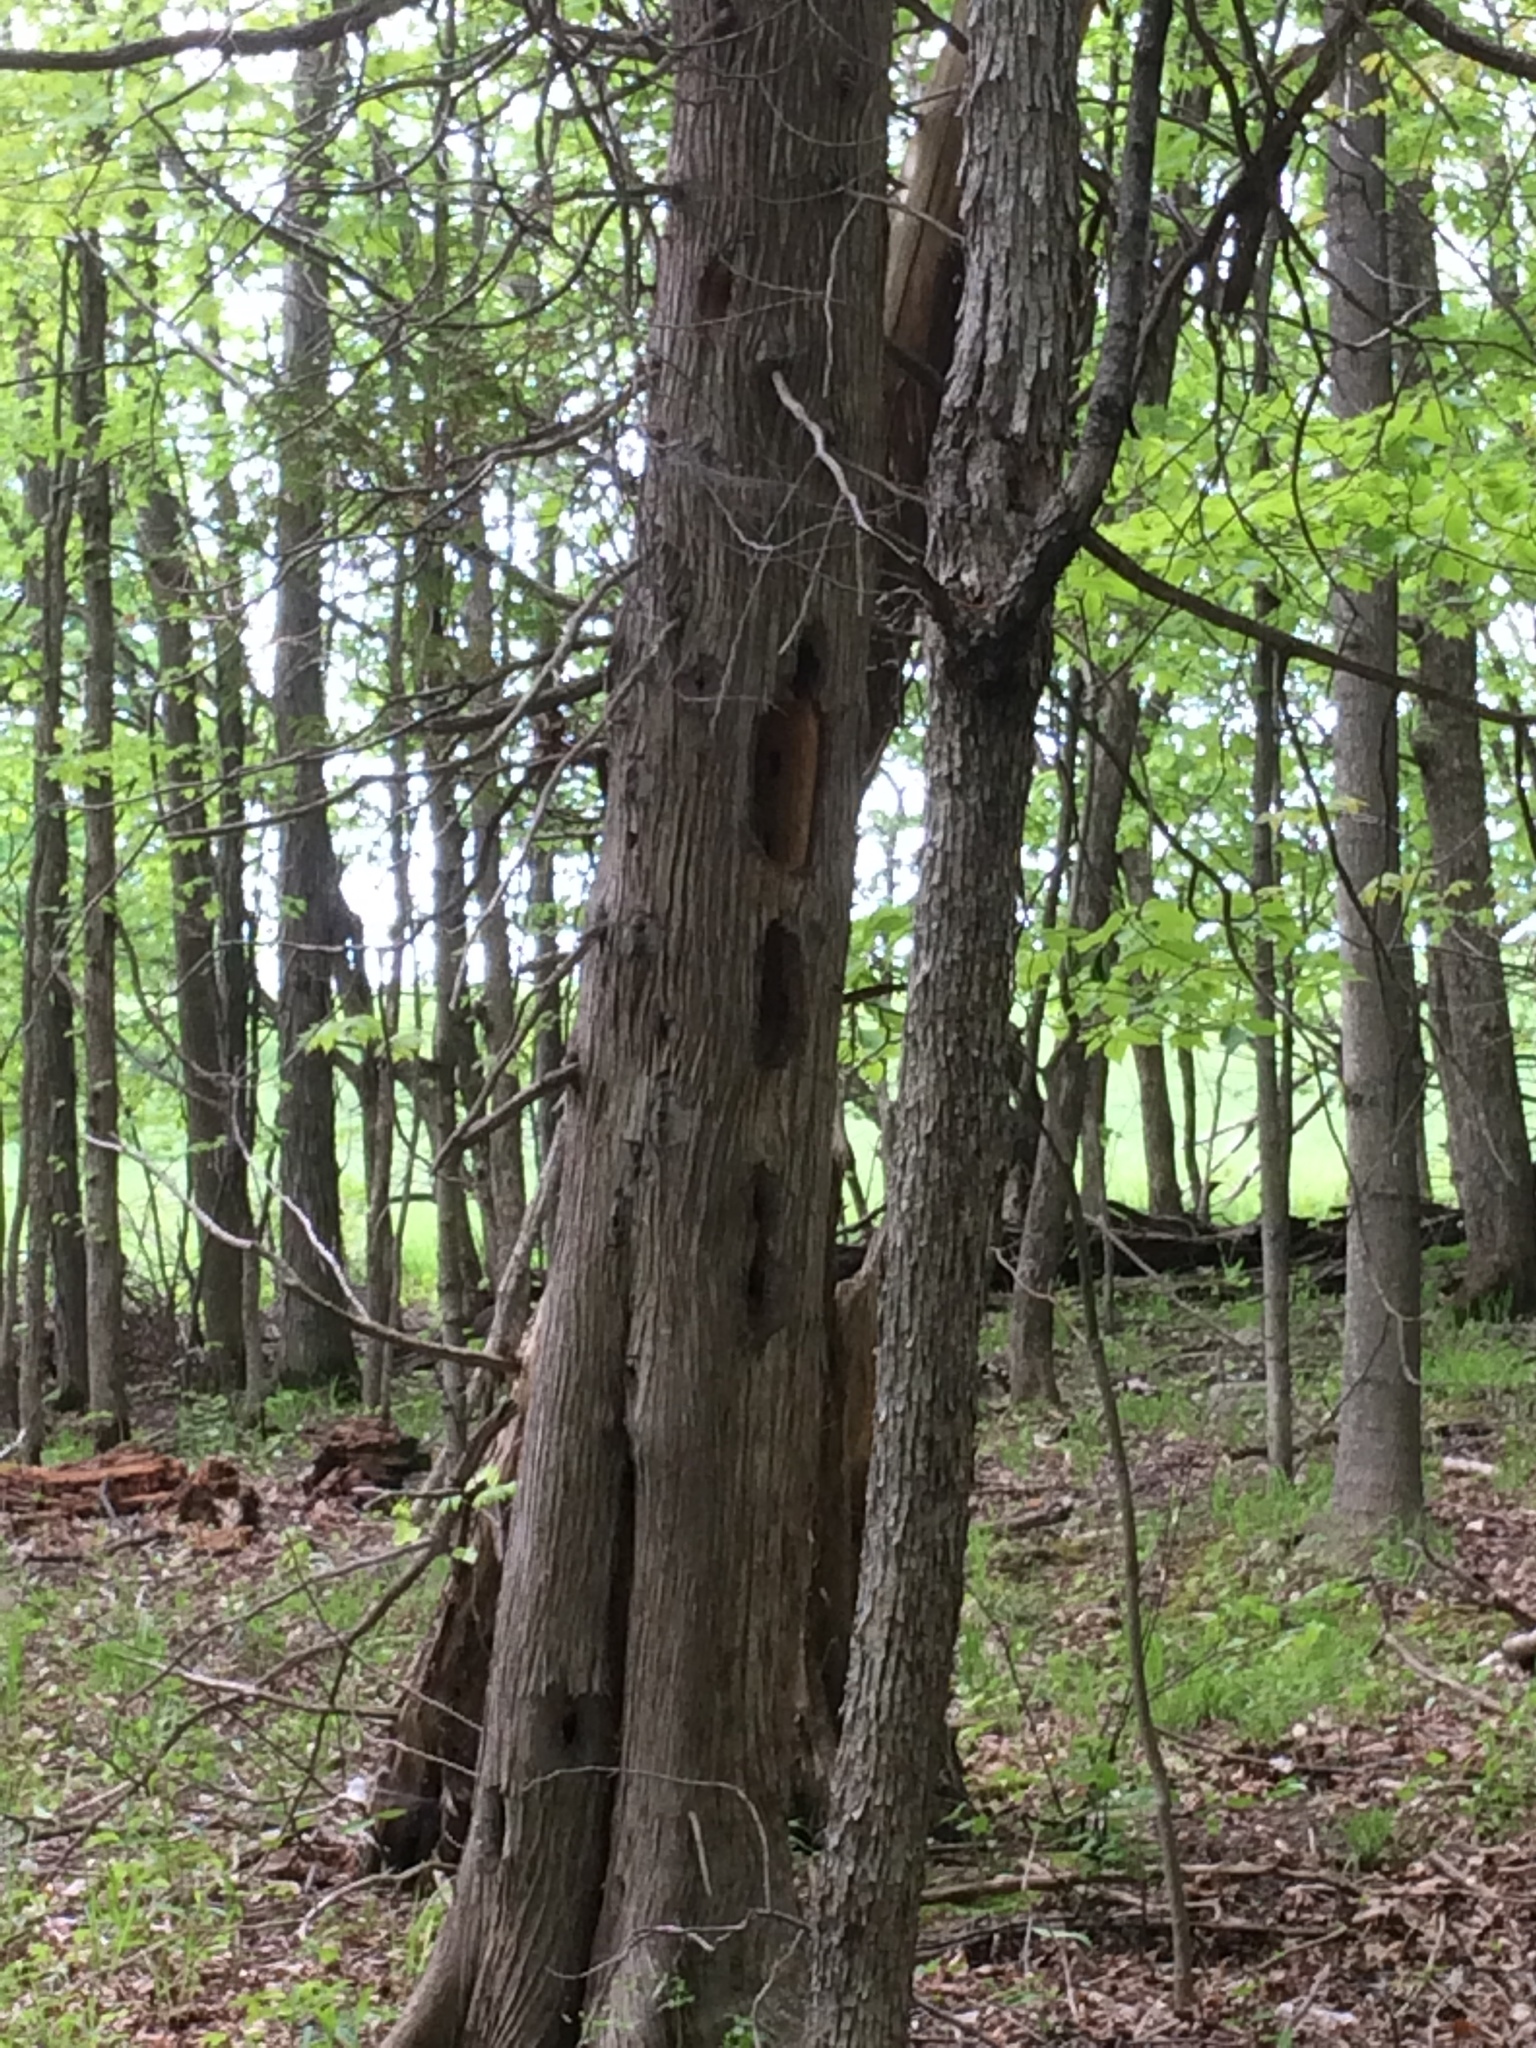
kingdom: Plantae
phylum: Tracheophyta
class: Pinopsida
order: Pinales
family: Cupressaceae
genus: Thuja
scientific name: Thuja occidentalis
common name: Northern white-cedar
